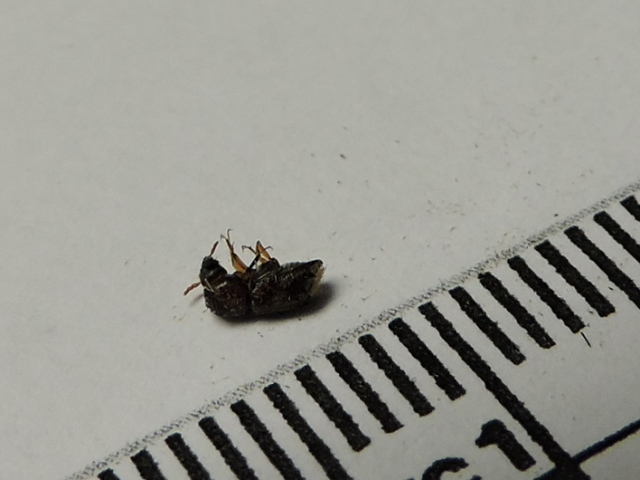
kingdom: Animalia
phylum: Arthropoda
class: Insecta
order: Coleoptera
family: Bostrichidae
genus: Xylobiops
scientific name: Xylobiops basilaris
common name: Red-shouldered bostrichid
